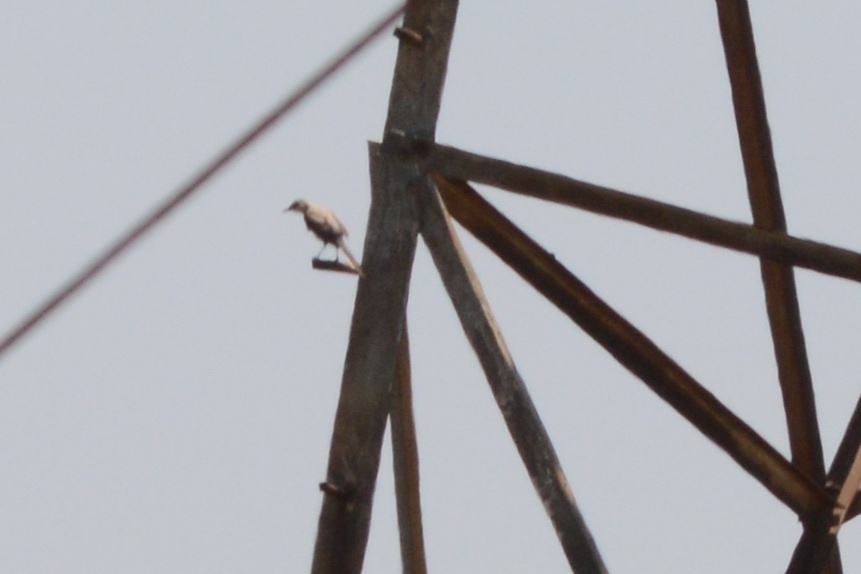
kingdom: Animalia
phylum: Chordata
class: Aves
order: Passeriformes
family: Mimidae
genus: Mimus
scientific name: Mimus polyglottos
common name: Northern mockingbird
